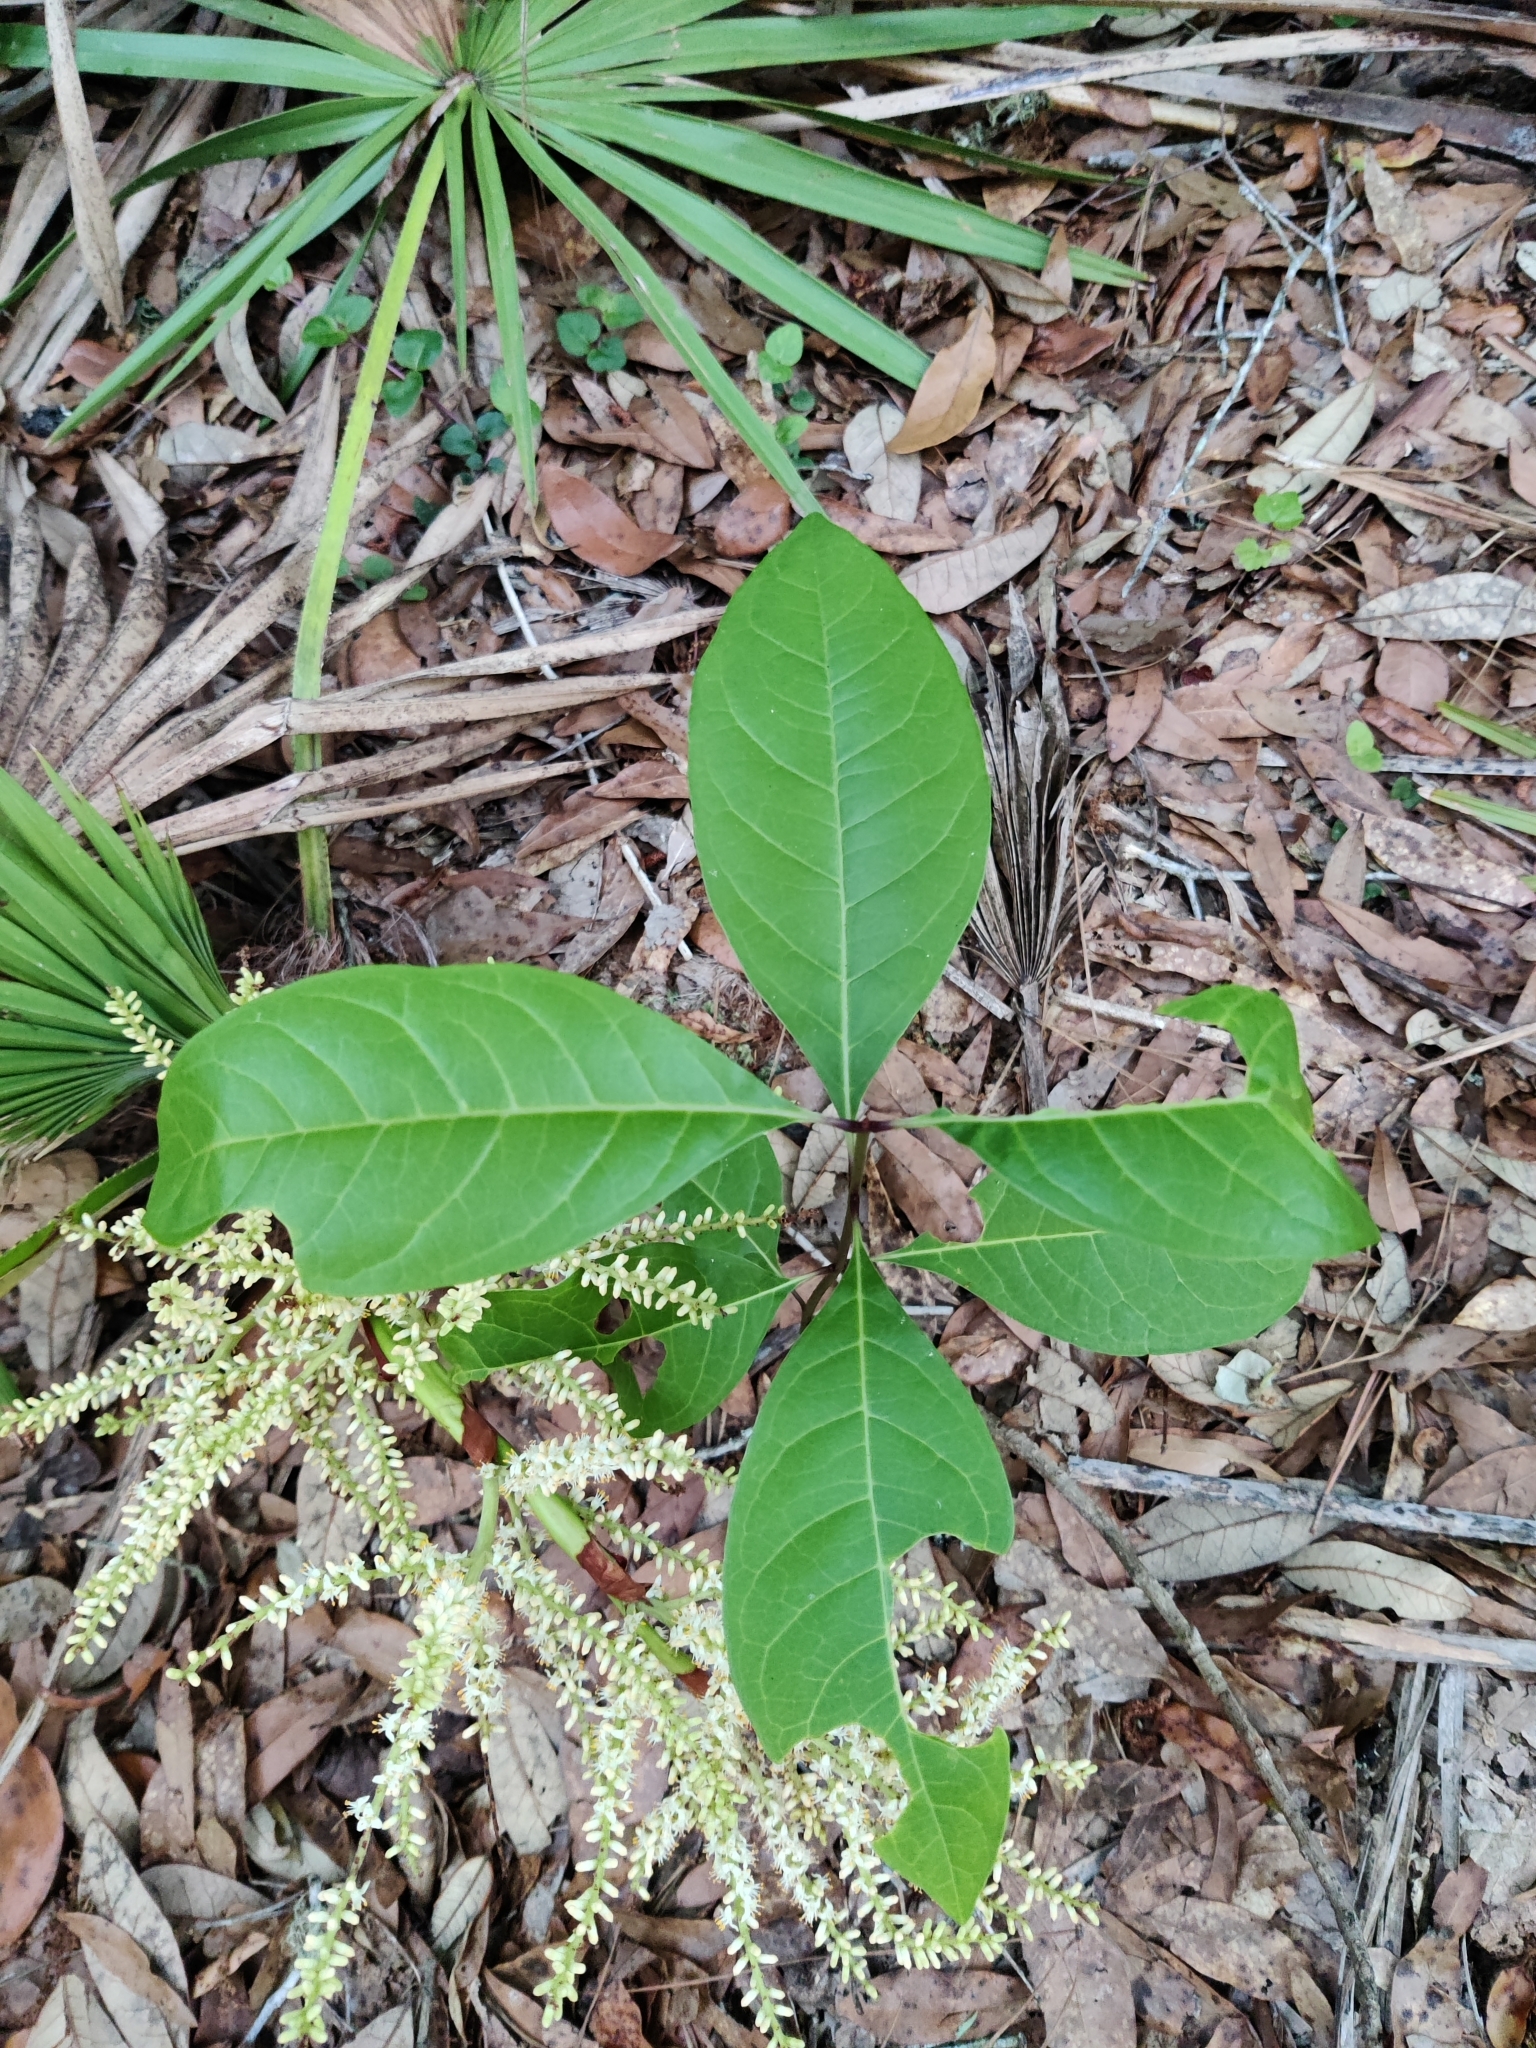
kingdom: Plantae
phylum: Tracheophyta
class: Magnoliopsida
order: Lamiales
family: Oleaceae
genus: Chionanthus
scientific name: Chionanthus virginicus
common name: American fringetree
